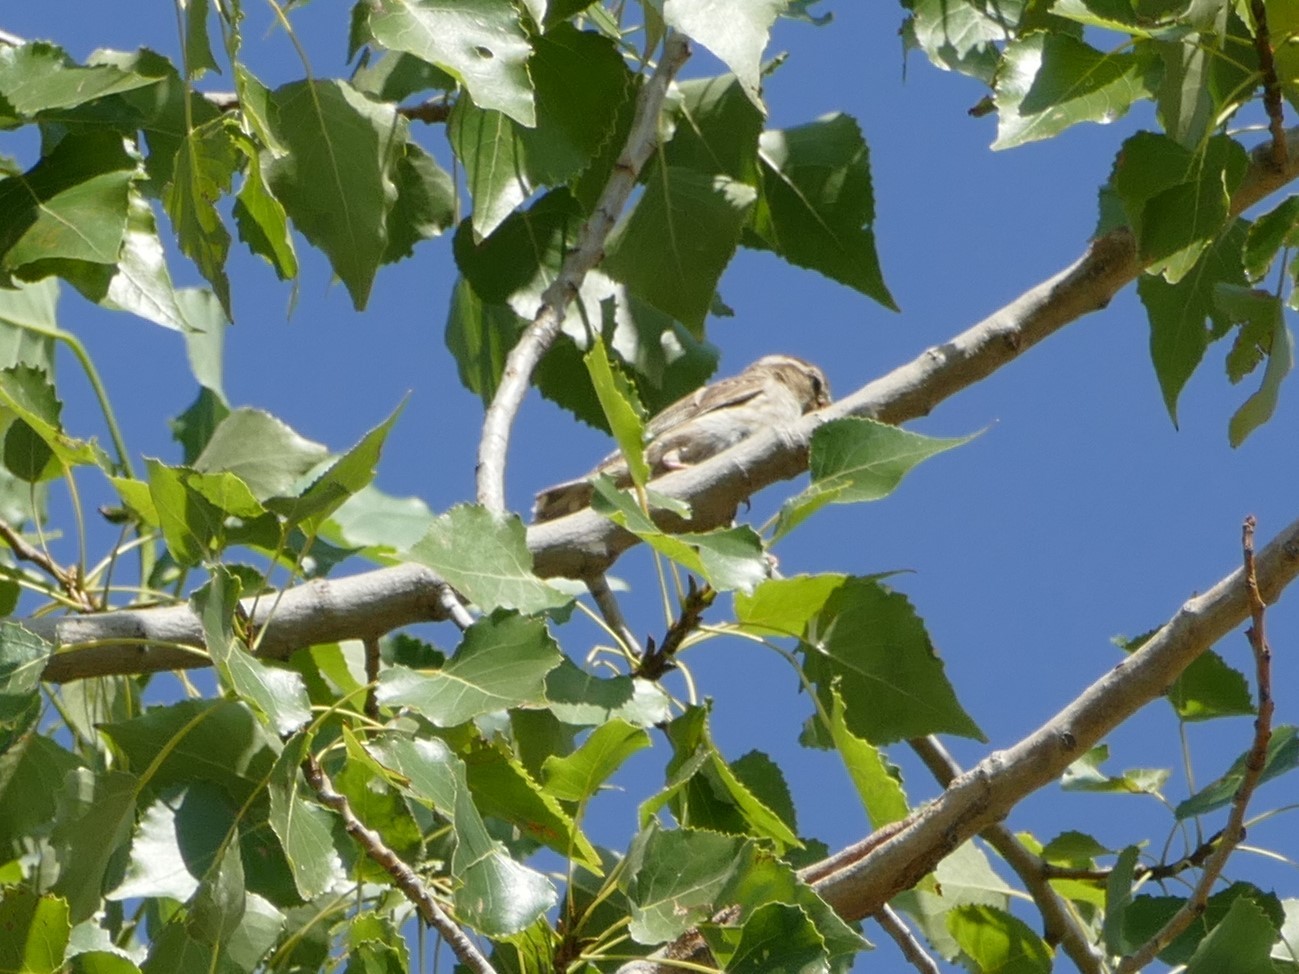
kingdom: Animalia
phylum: Chordata
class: Aves
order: Passeriformes
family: Passeridae
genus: Petronia
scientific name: Petronia petronia
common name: Rock sparrow
